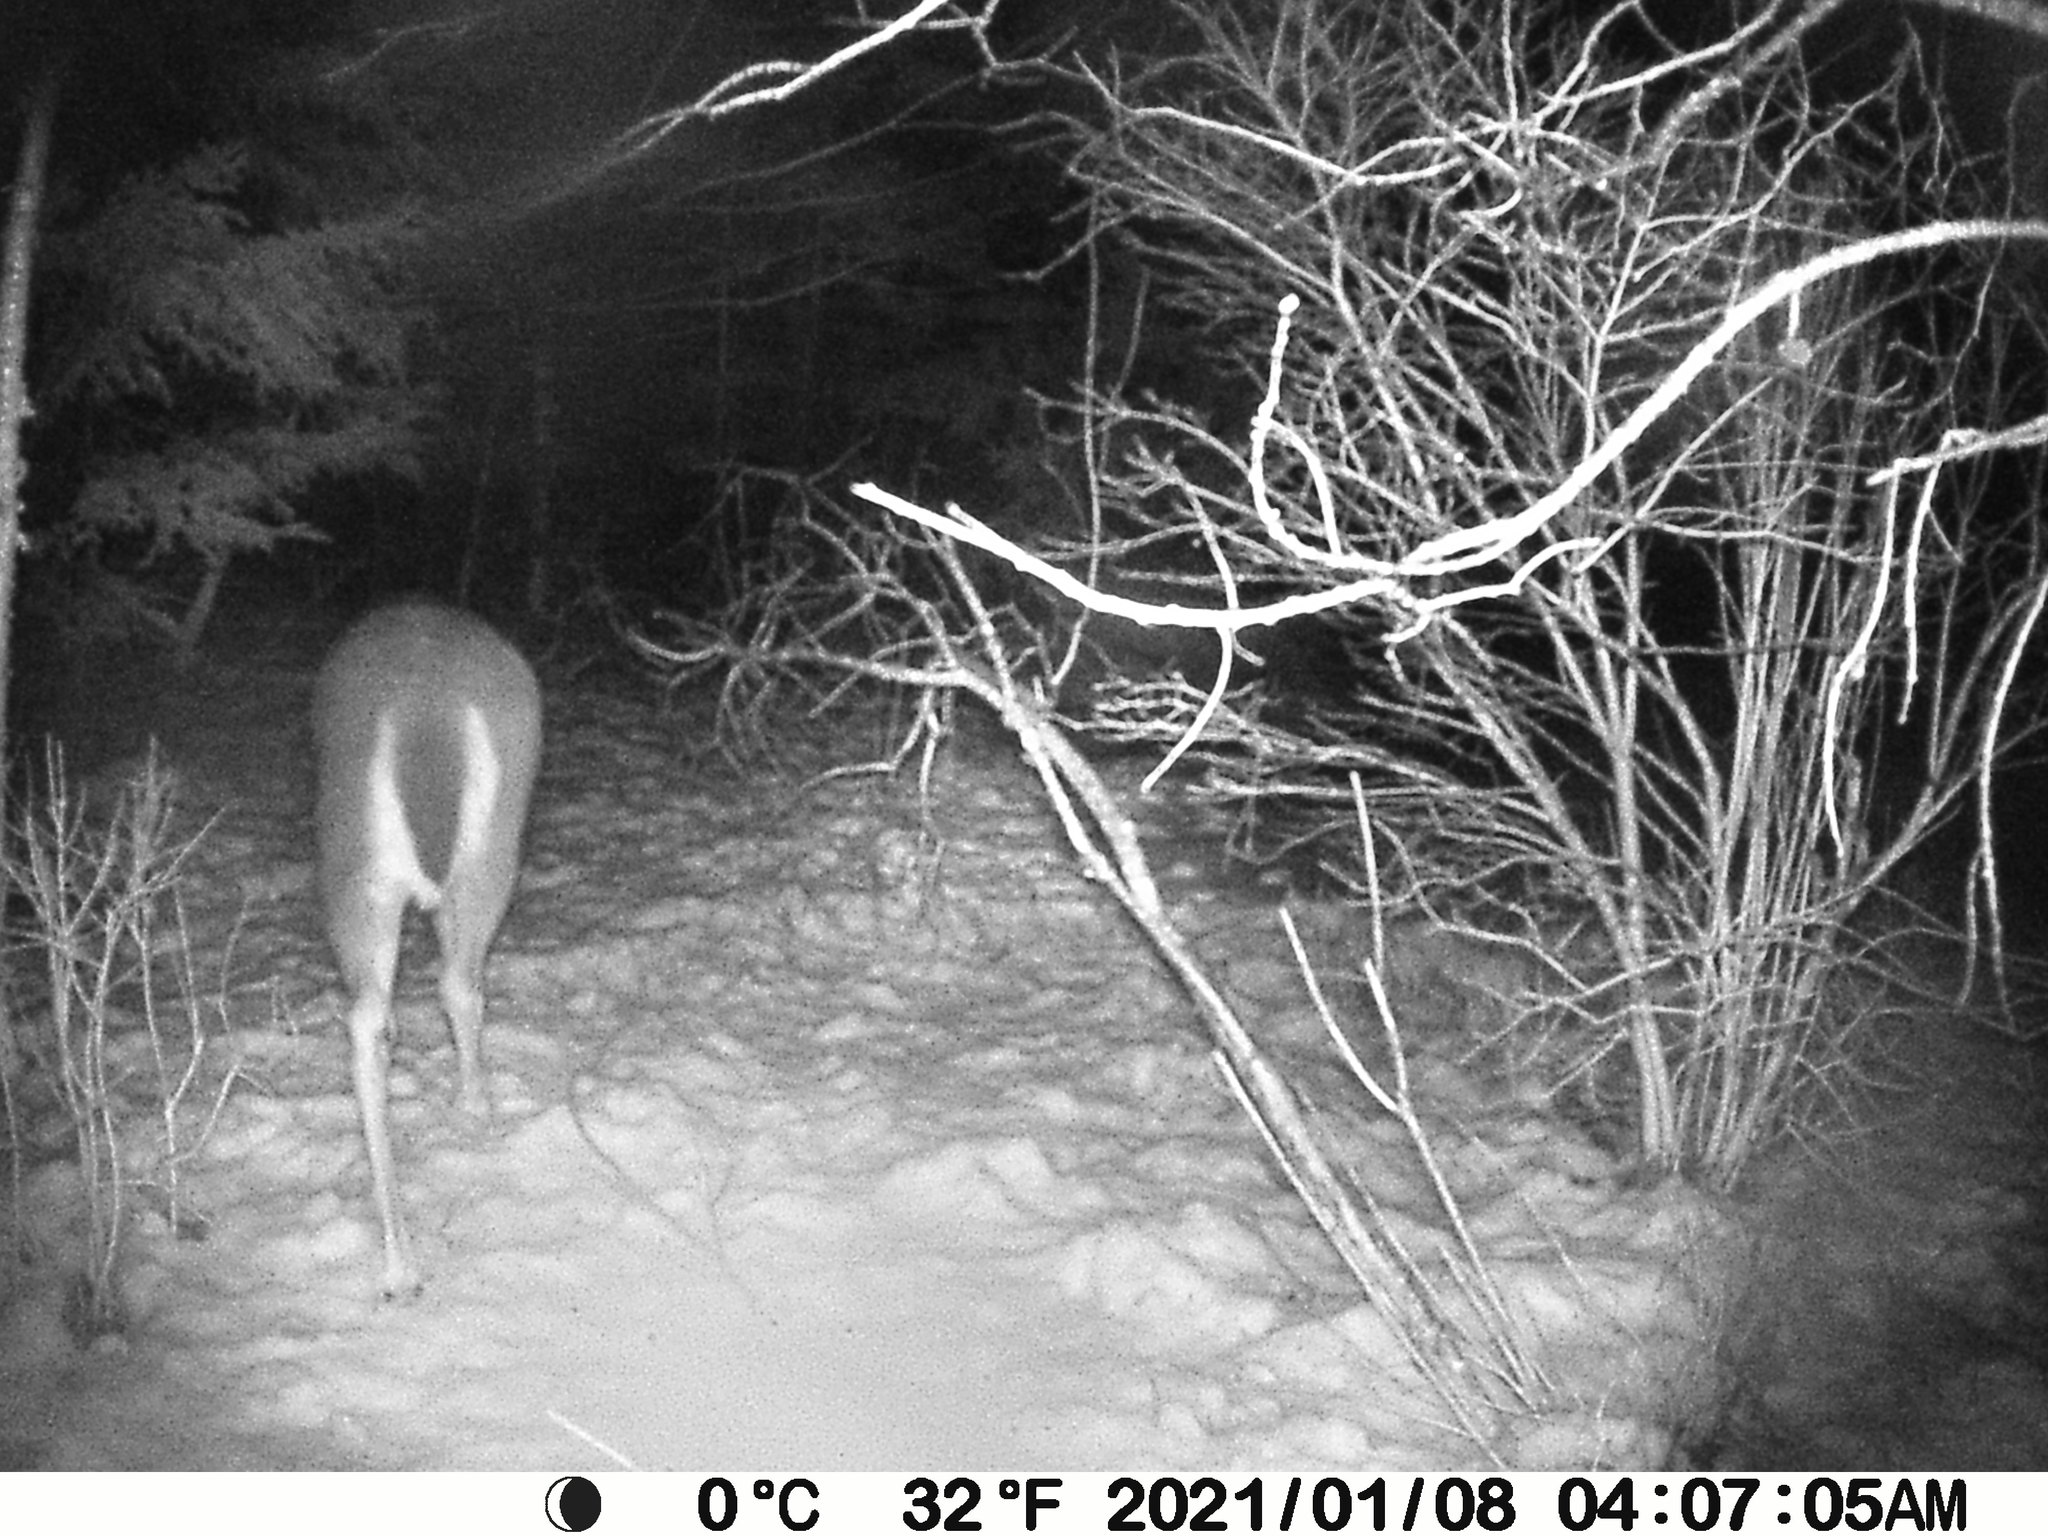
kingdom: Animalia
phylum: Chordata
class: Mammalia
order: Artiodactyla
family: Cervidae
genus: Odocoileus
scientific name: Odocoileus virginianus
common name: White-tailed deer
